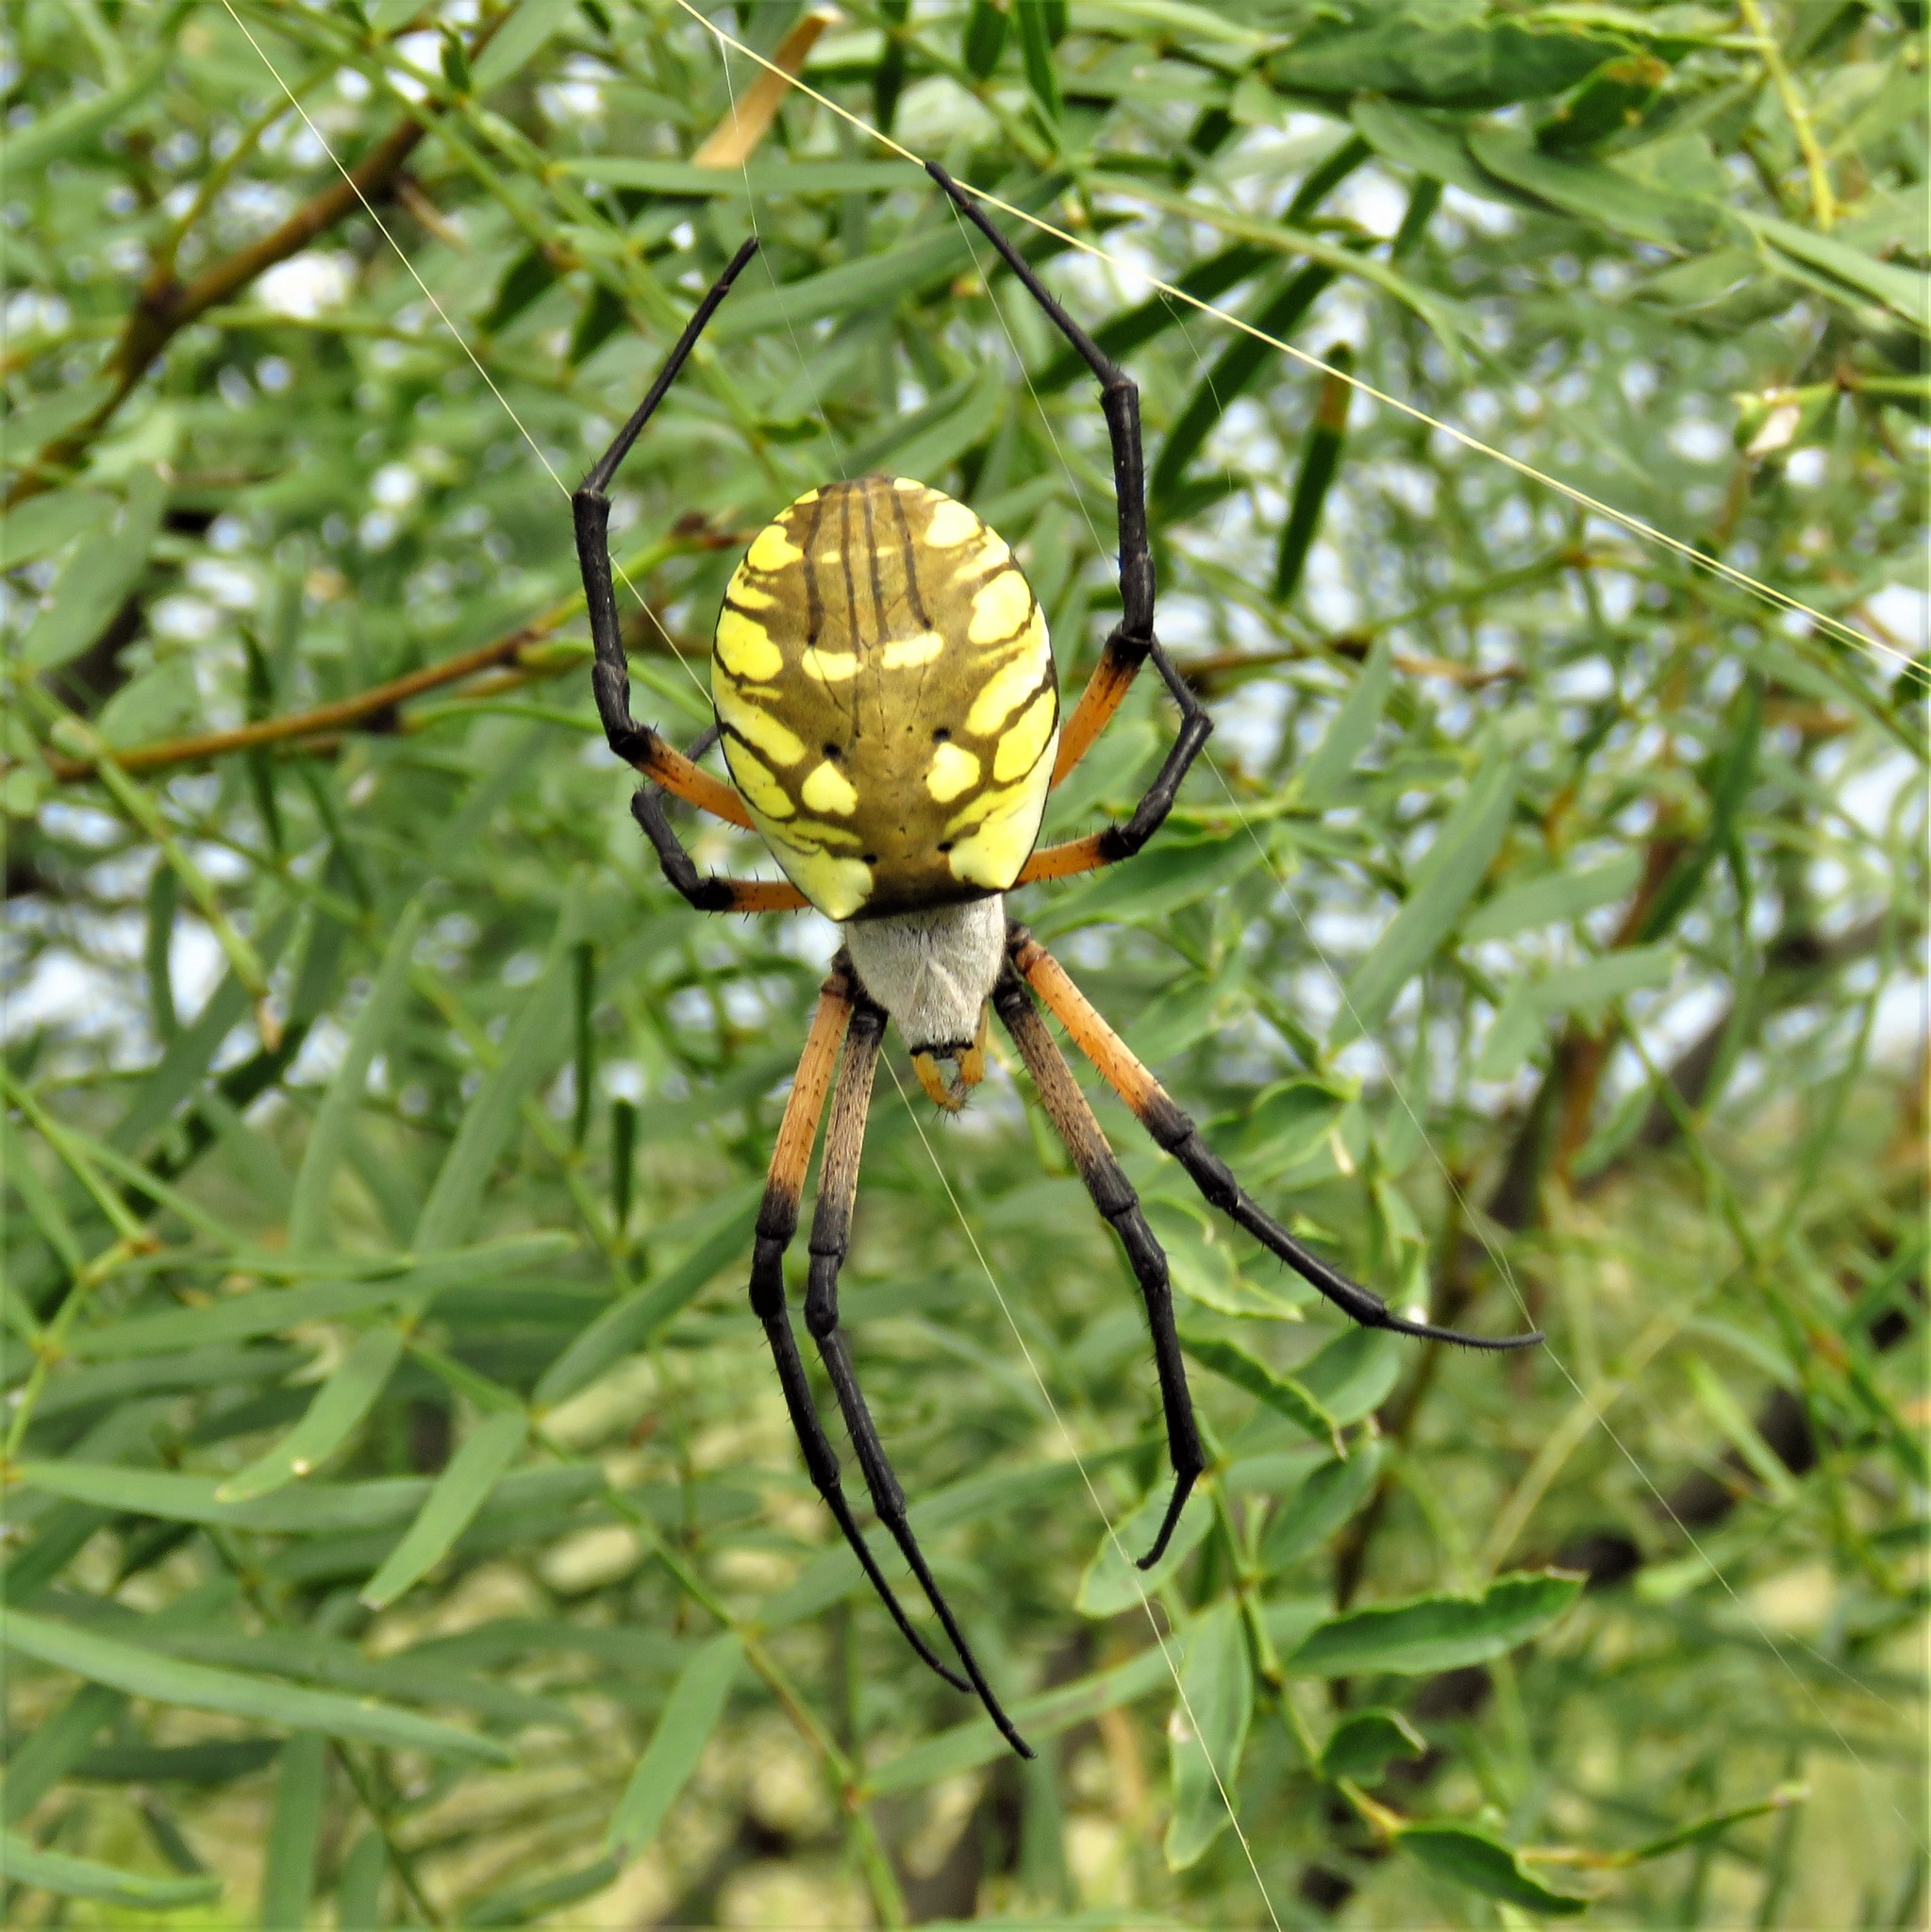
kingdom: Animalia
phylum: Arthropoda
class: Arachnida
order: Araneae
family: Araneidae
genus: Argiope
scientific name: Argiope aurantia
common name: Orb weavers
